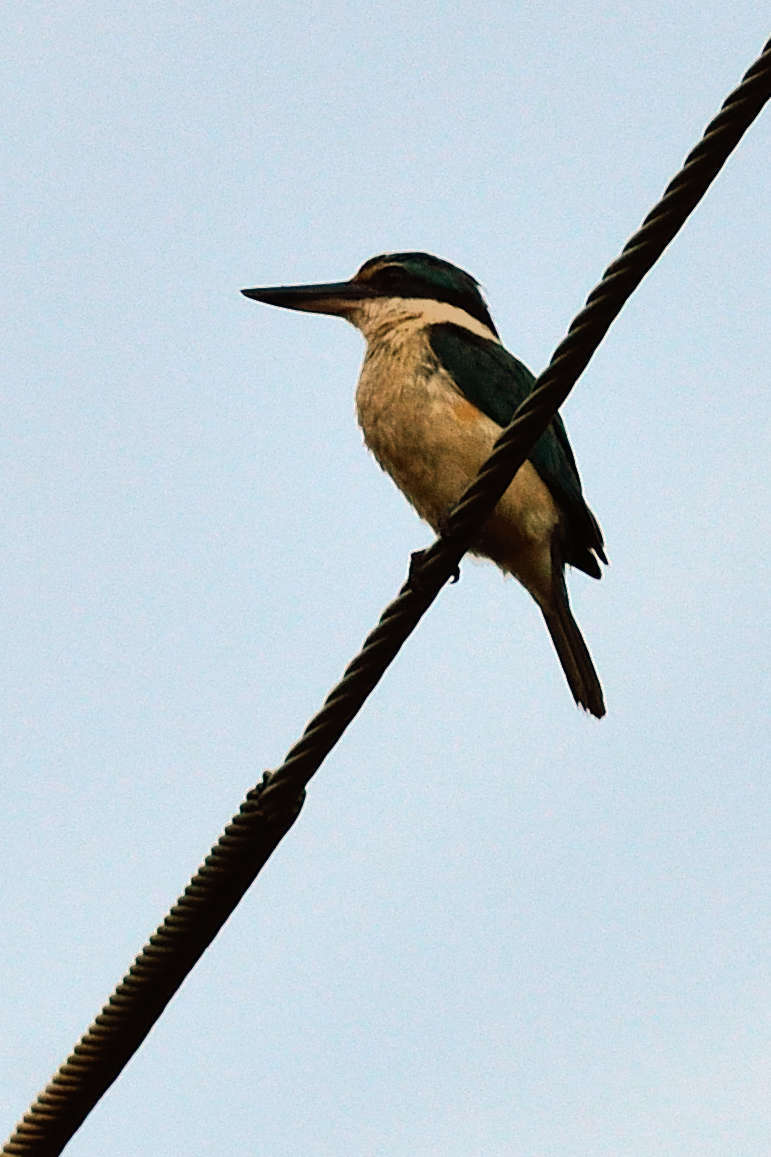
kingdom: Animalia
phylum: Chordata
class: Aves
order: Coraciiformes
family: Alcedinidae
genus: Todiramphus
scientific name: Todiramphus sanctus
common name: Sacred kingfisher
